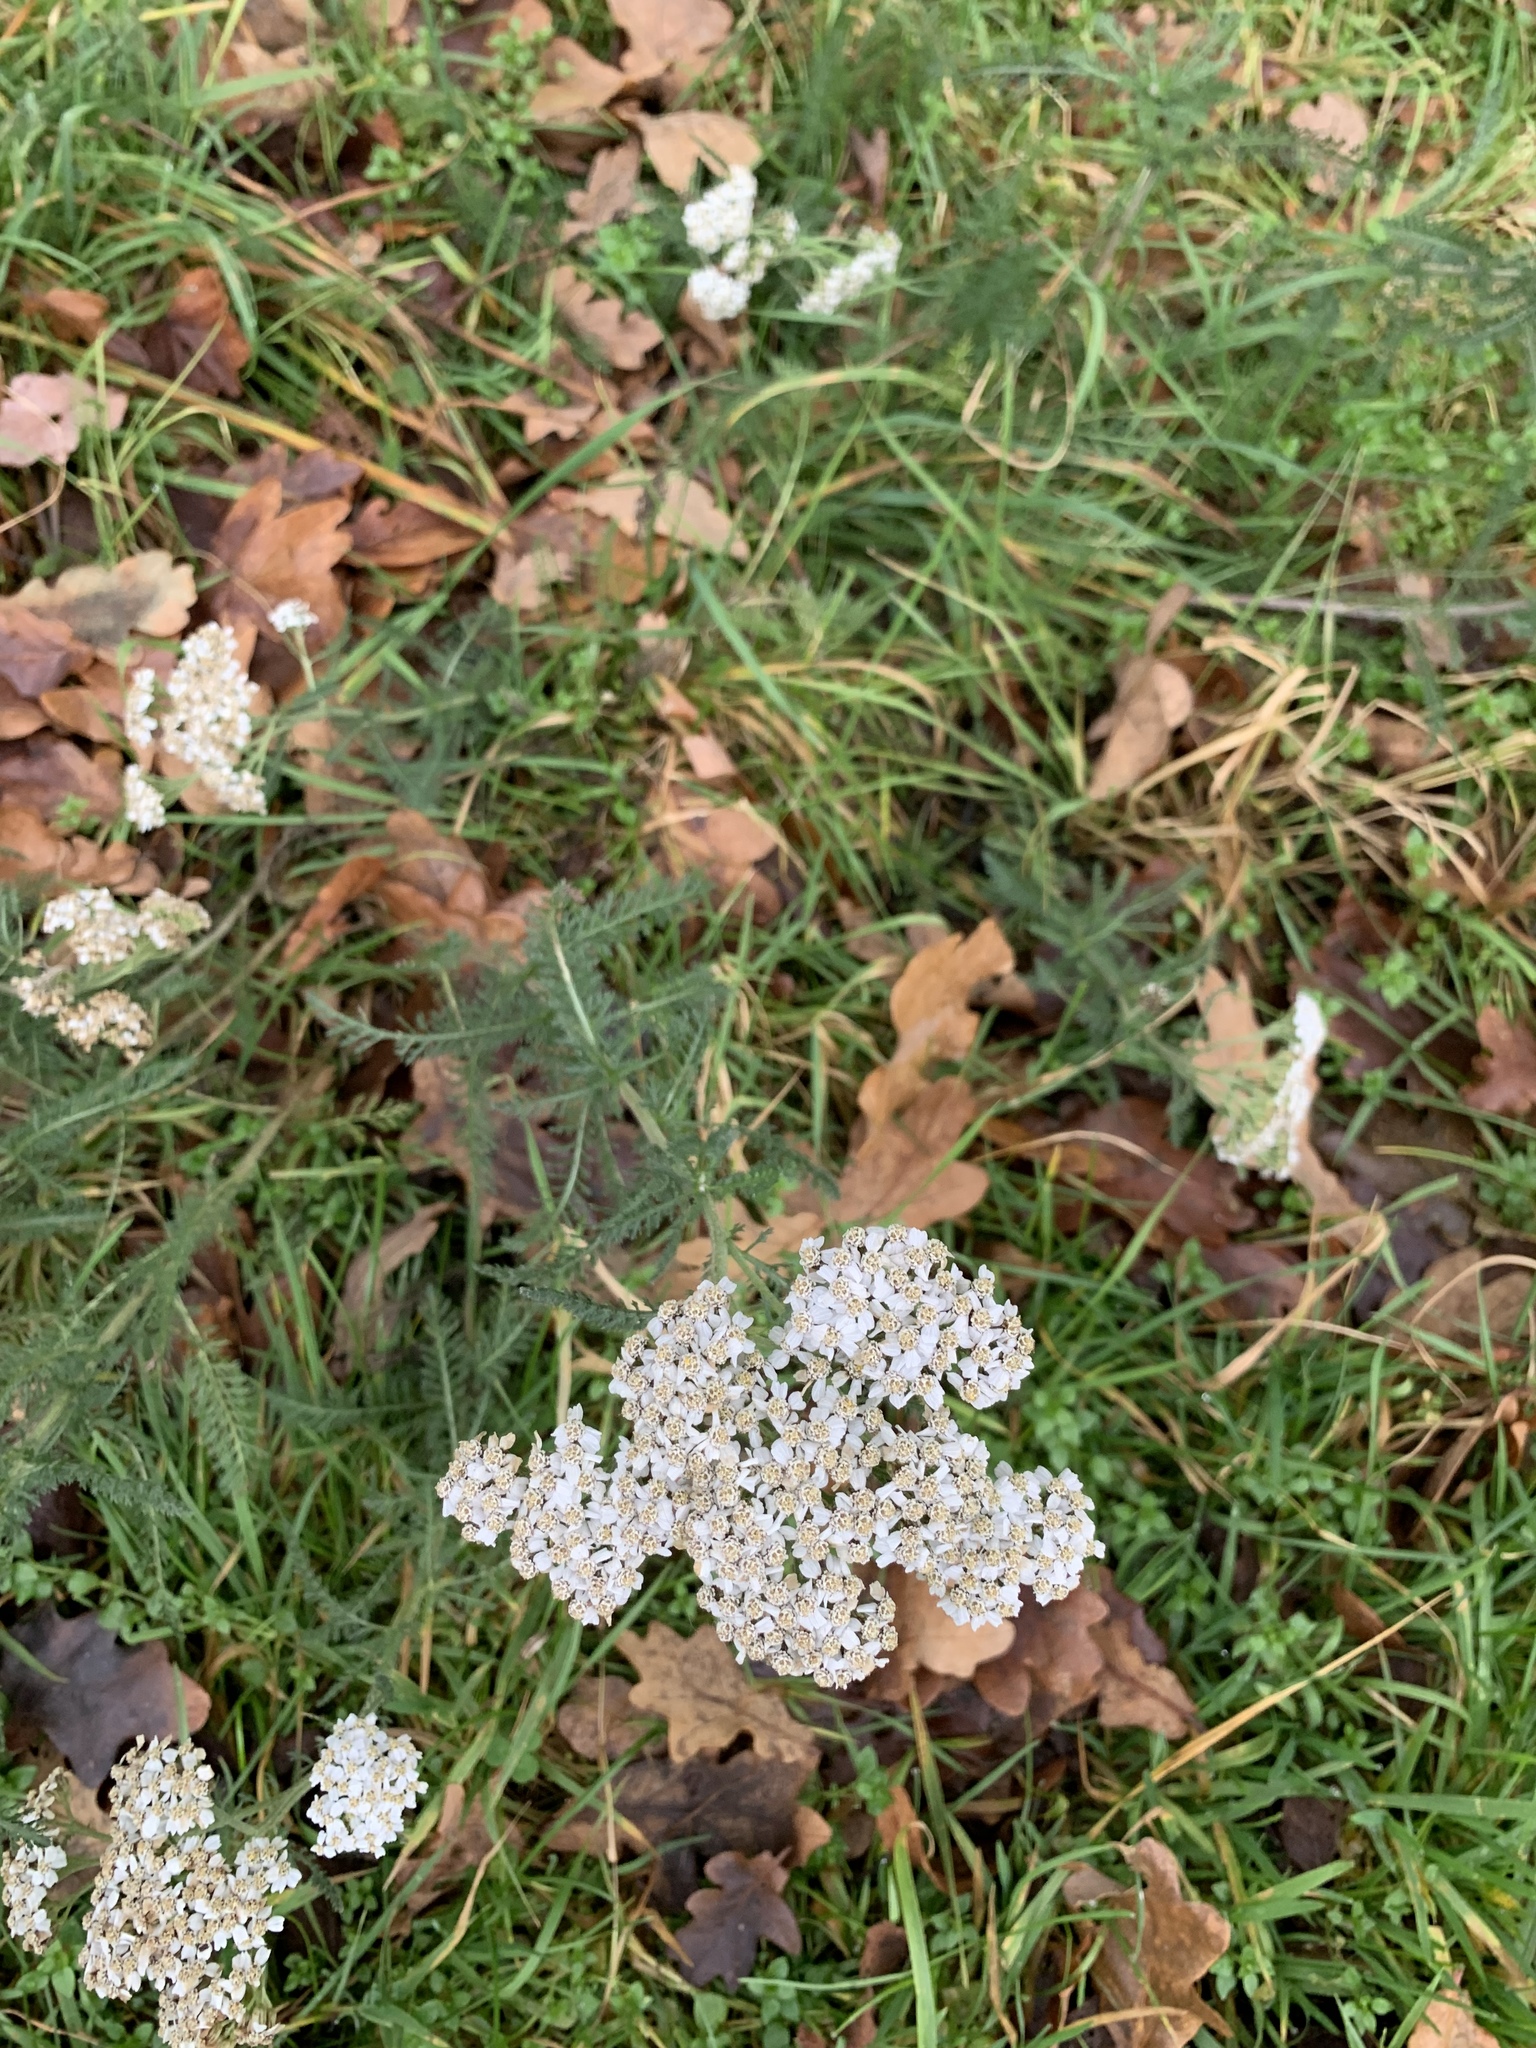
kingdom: Plantae
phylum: Tracheophyta
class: Magnoliopsida
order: Asterales
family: Asteraceae
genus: Achillea
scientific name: Achillea millefolium
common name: Yarrow
